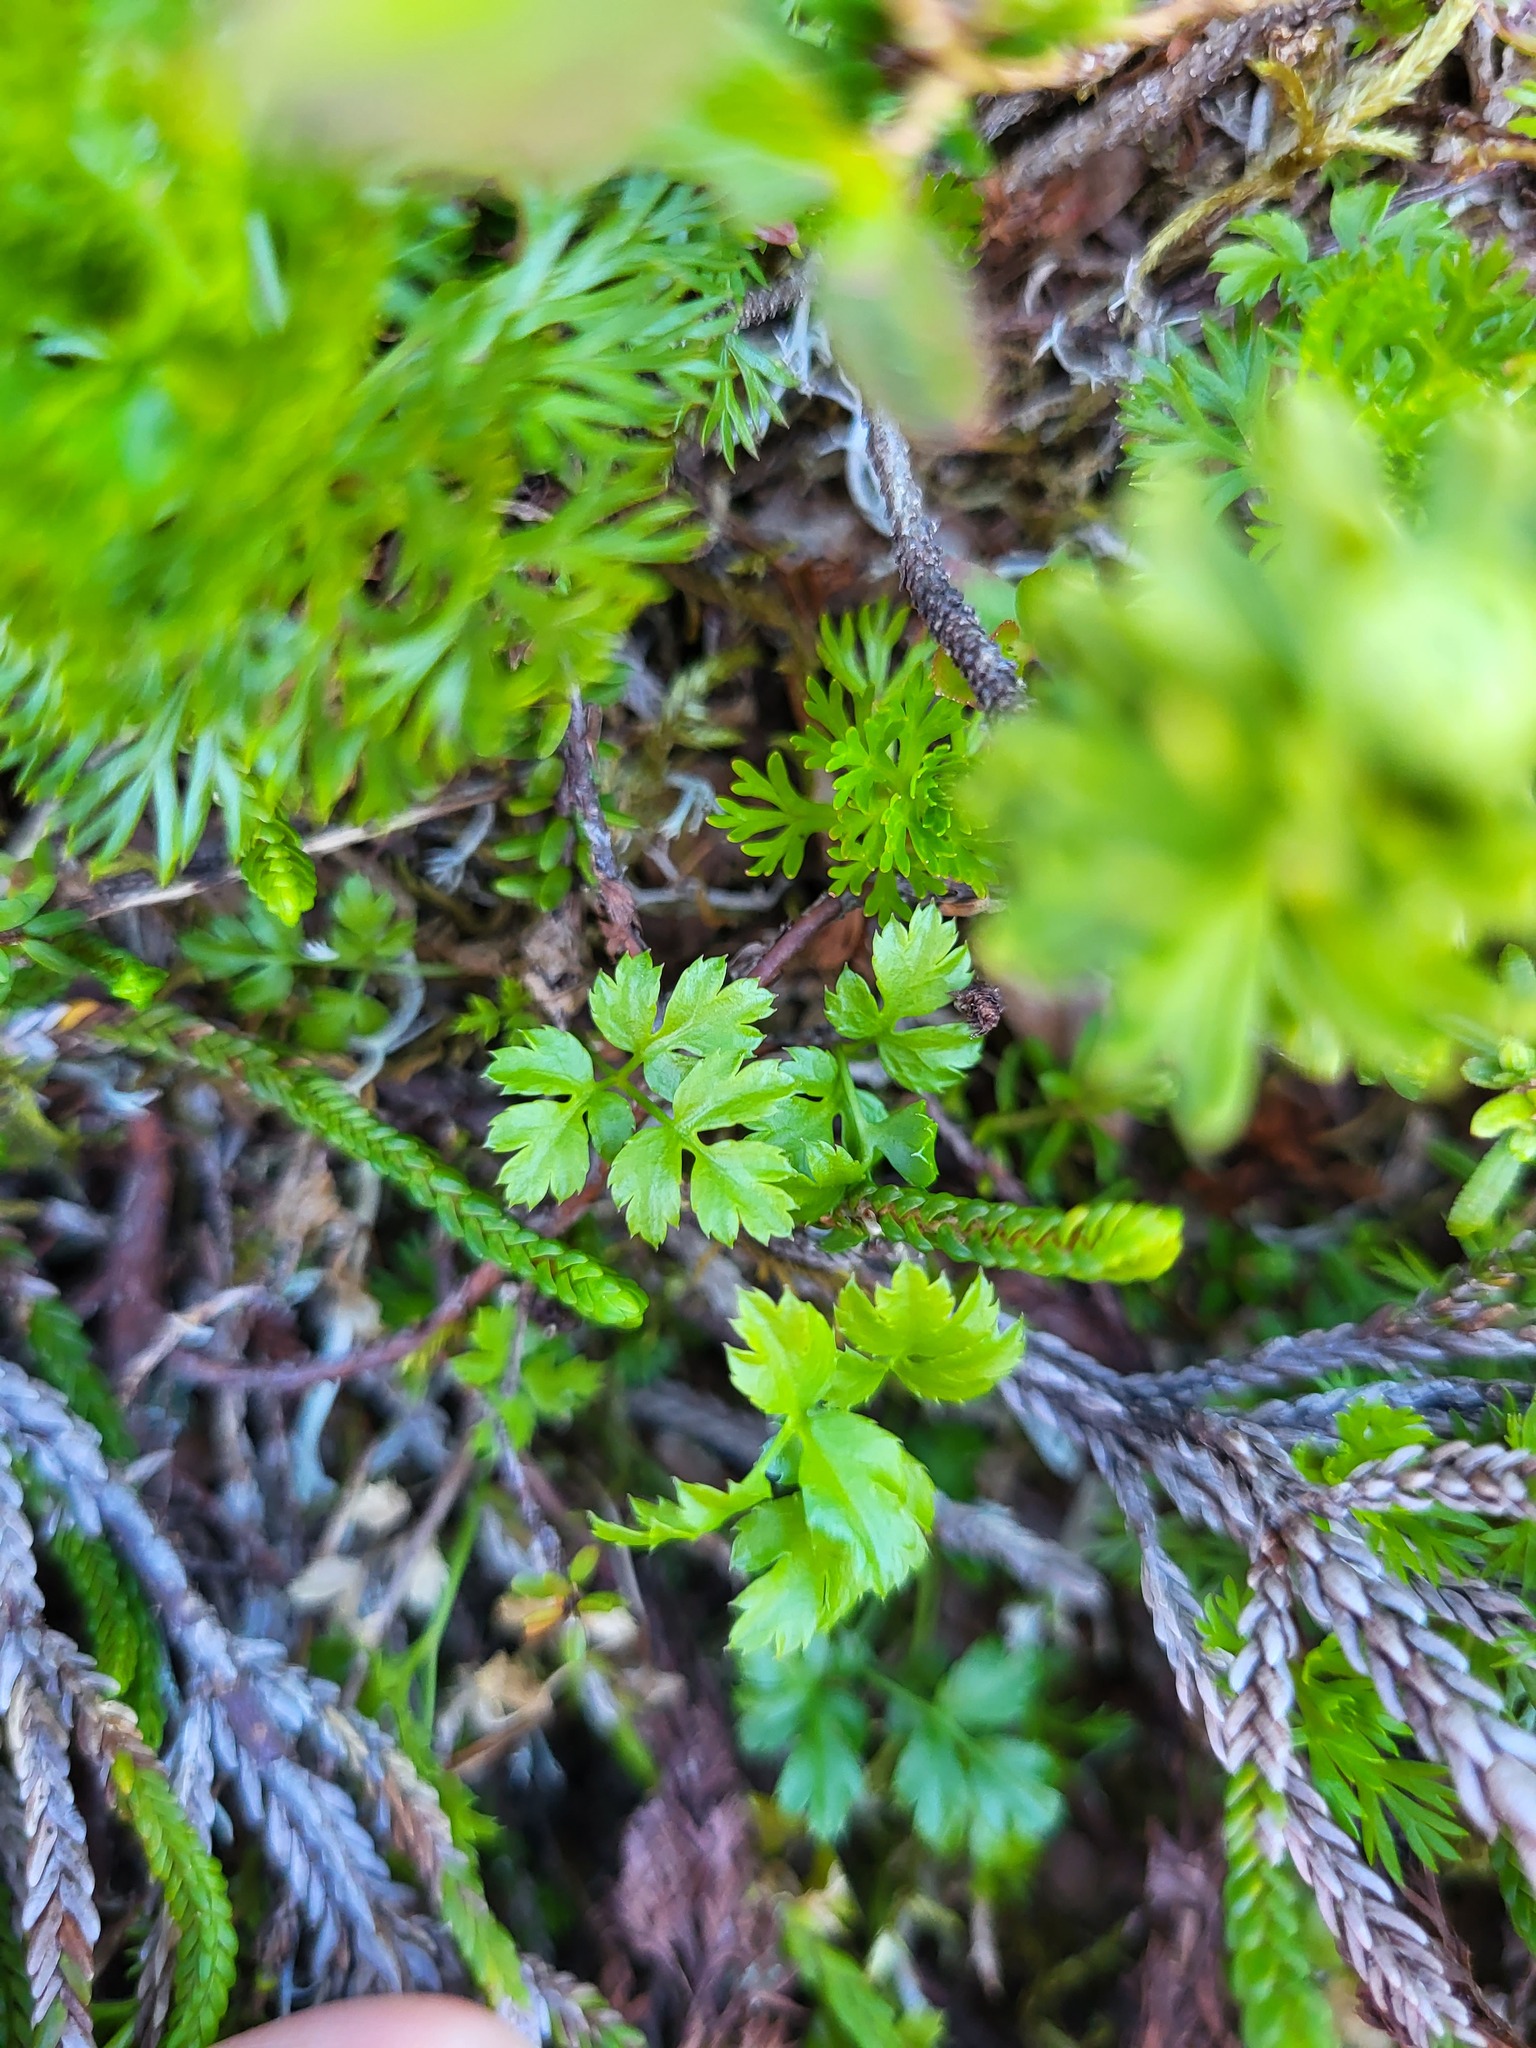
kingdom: Plantae
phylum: Tracheophyta
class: Magnoliopsida
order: Ranunculales
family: Ranunculaceae
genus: Coptis
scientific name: Coptis aspleniifolia
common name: Fern-leaved goldthread
